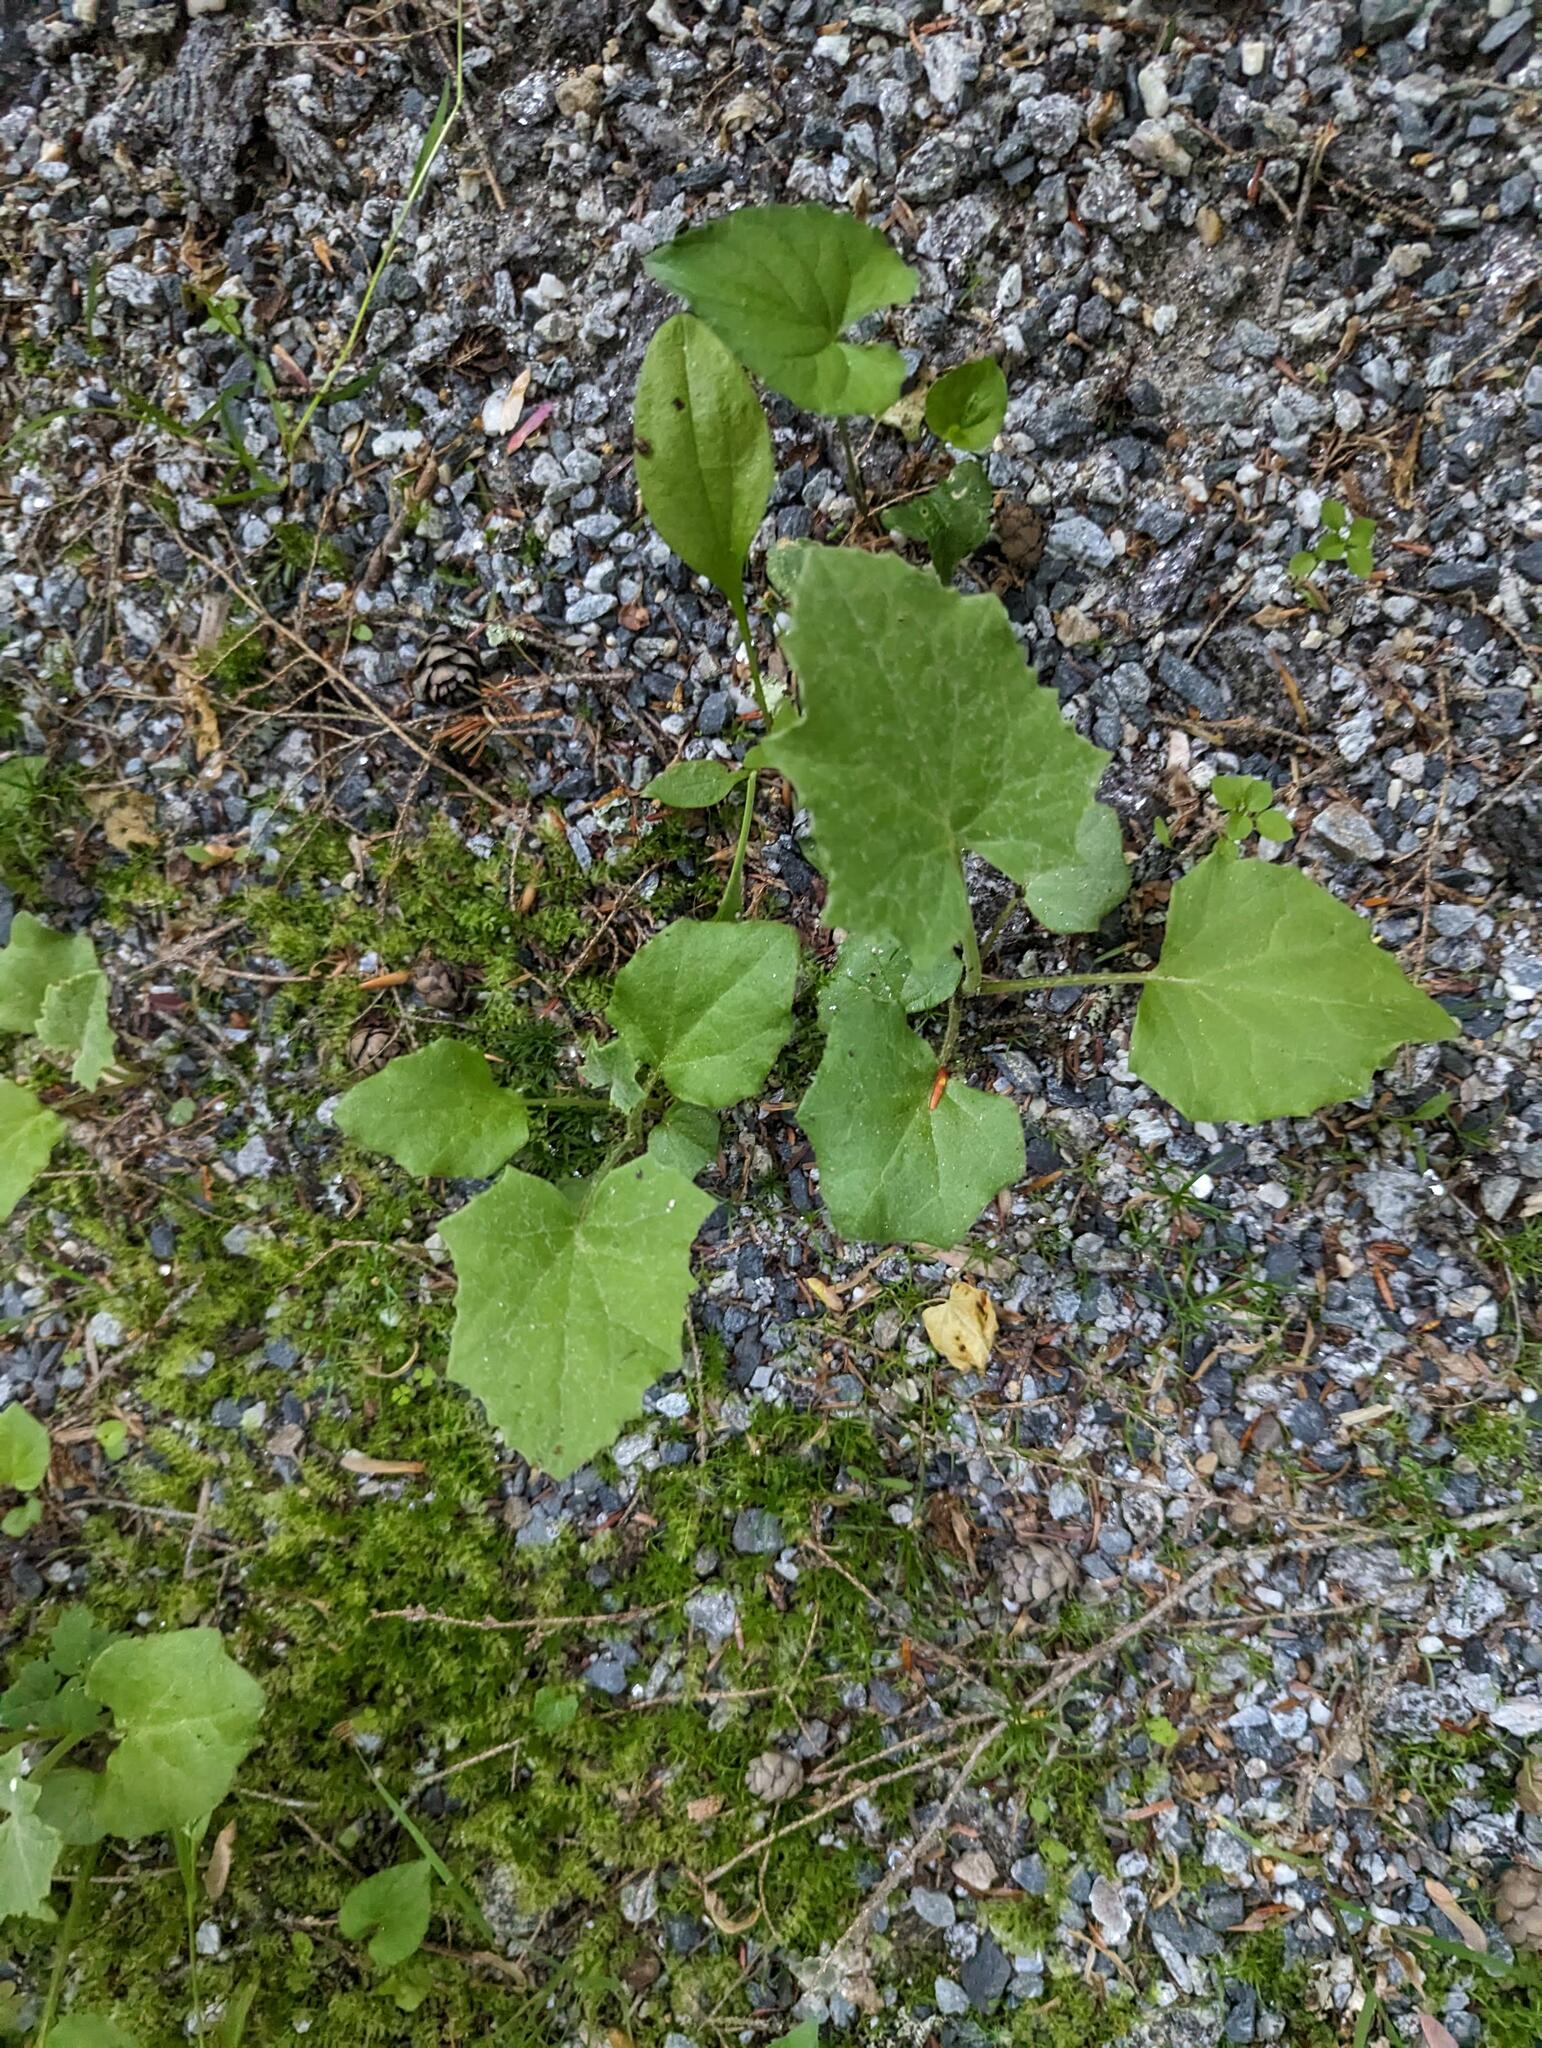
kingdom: Plantae
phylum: Tracheophyta
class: Magnoliopsida
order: Asterales
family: Asteraceae
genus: Tussilago
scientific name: Tussilago farfara
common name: Coltsfoot
